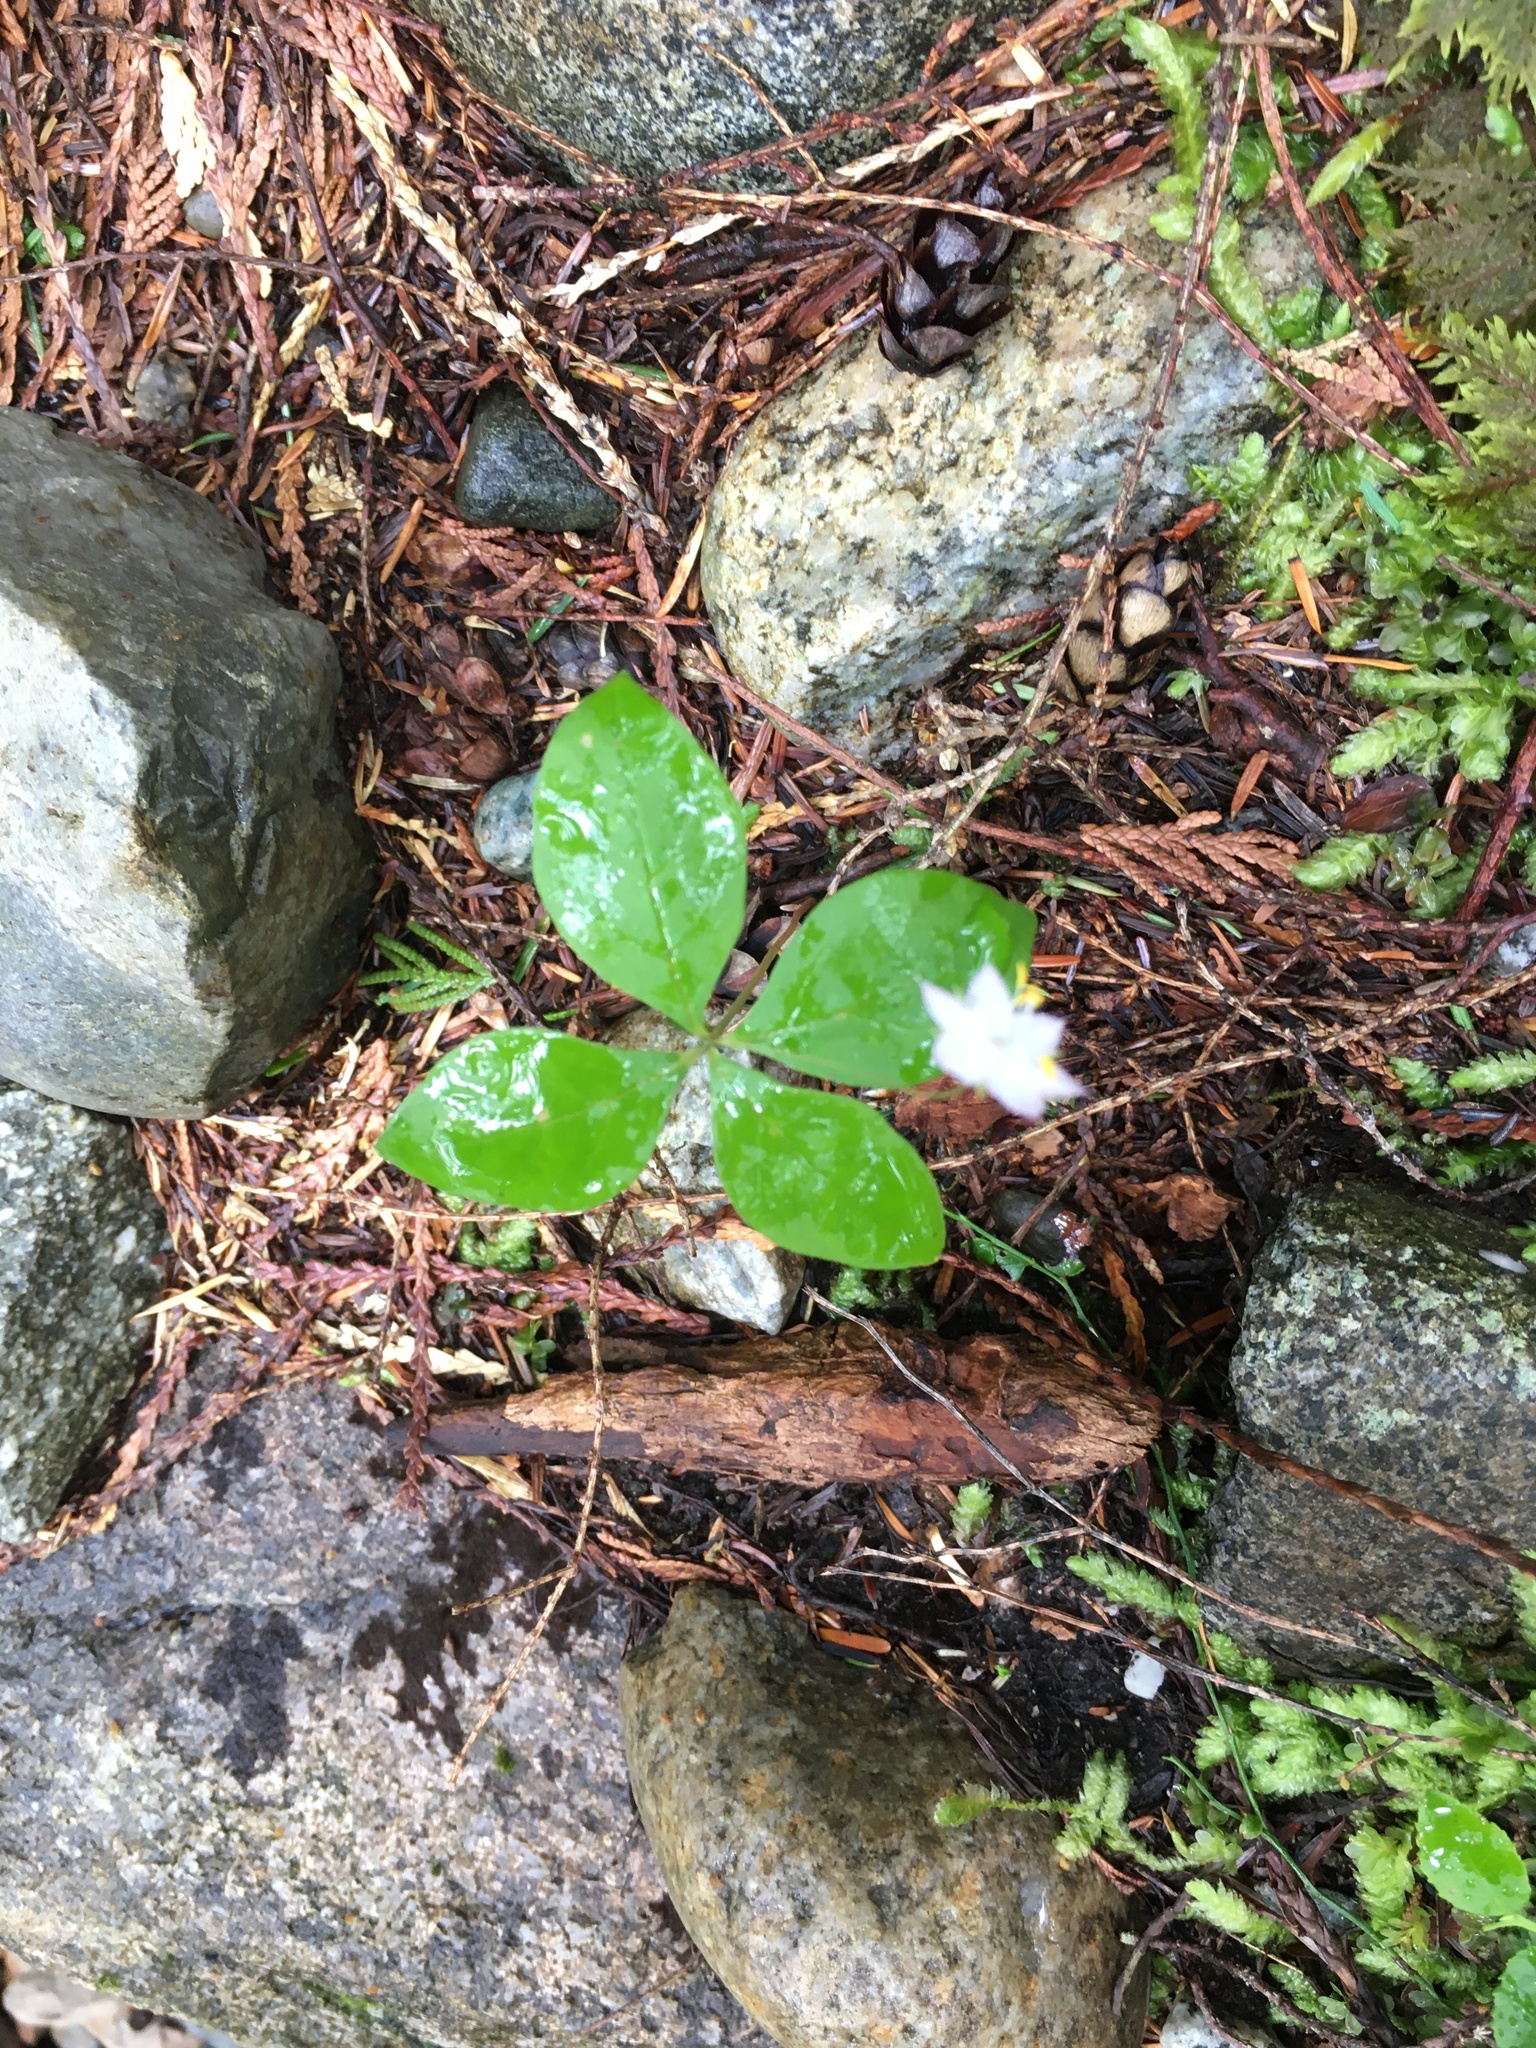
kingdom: Plantae
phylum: Tracheophyta
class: Magnoliopsida
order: Ericales
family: Primulaceae
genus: Lysimachia
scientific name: Lysimachia latifolia
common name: Pacific starflower
